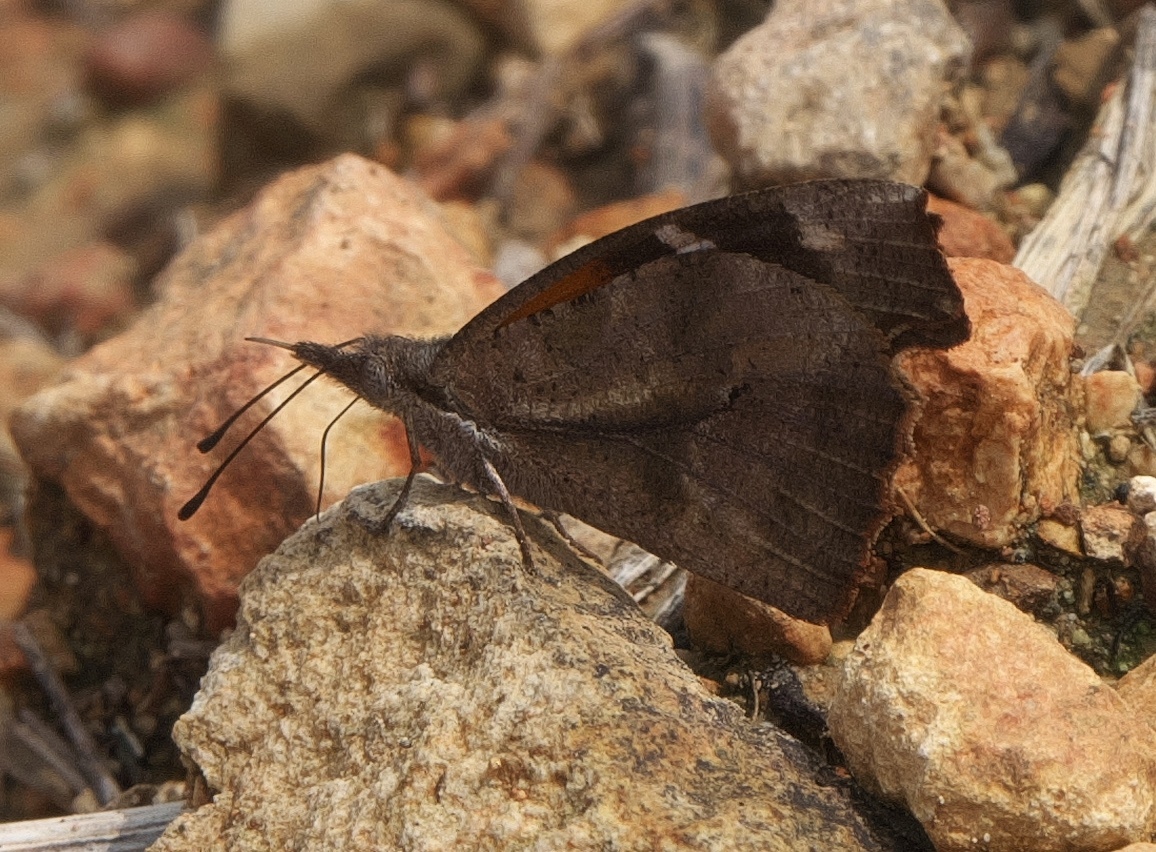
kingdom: Animalia
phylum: Arthropoda
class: Insecta
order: Lepidoptera
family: Nymphalidae
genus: Libytheana
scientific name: Libytheana carinenta
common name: American snout
